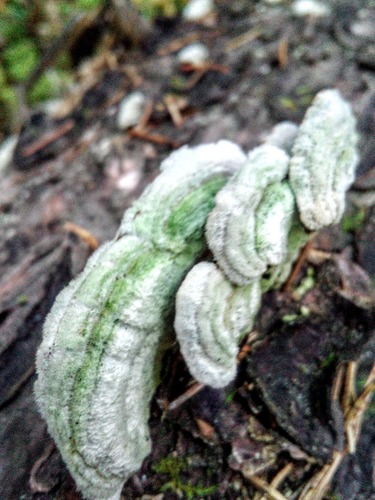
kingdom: Fungi
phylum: Basidiomycota
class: Agaricomycetes
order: Hymenochaetales
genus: Trichaptum
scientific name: Trichaptum fuscoviolaceum
